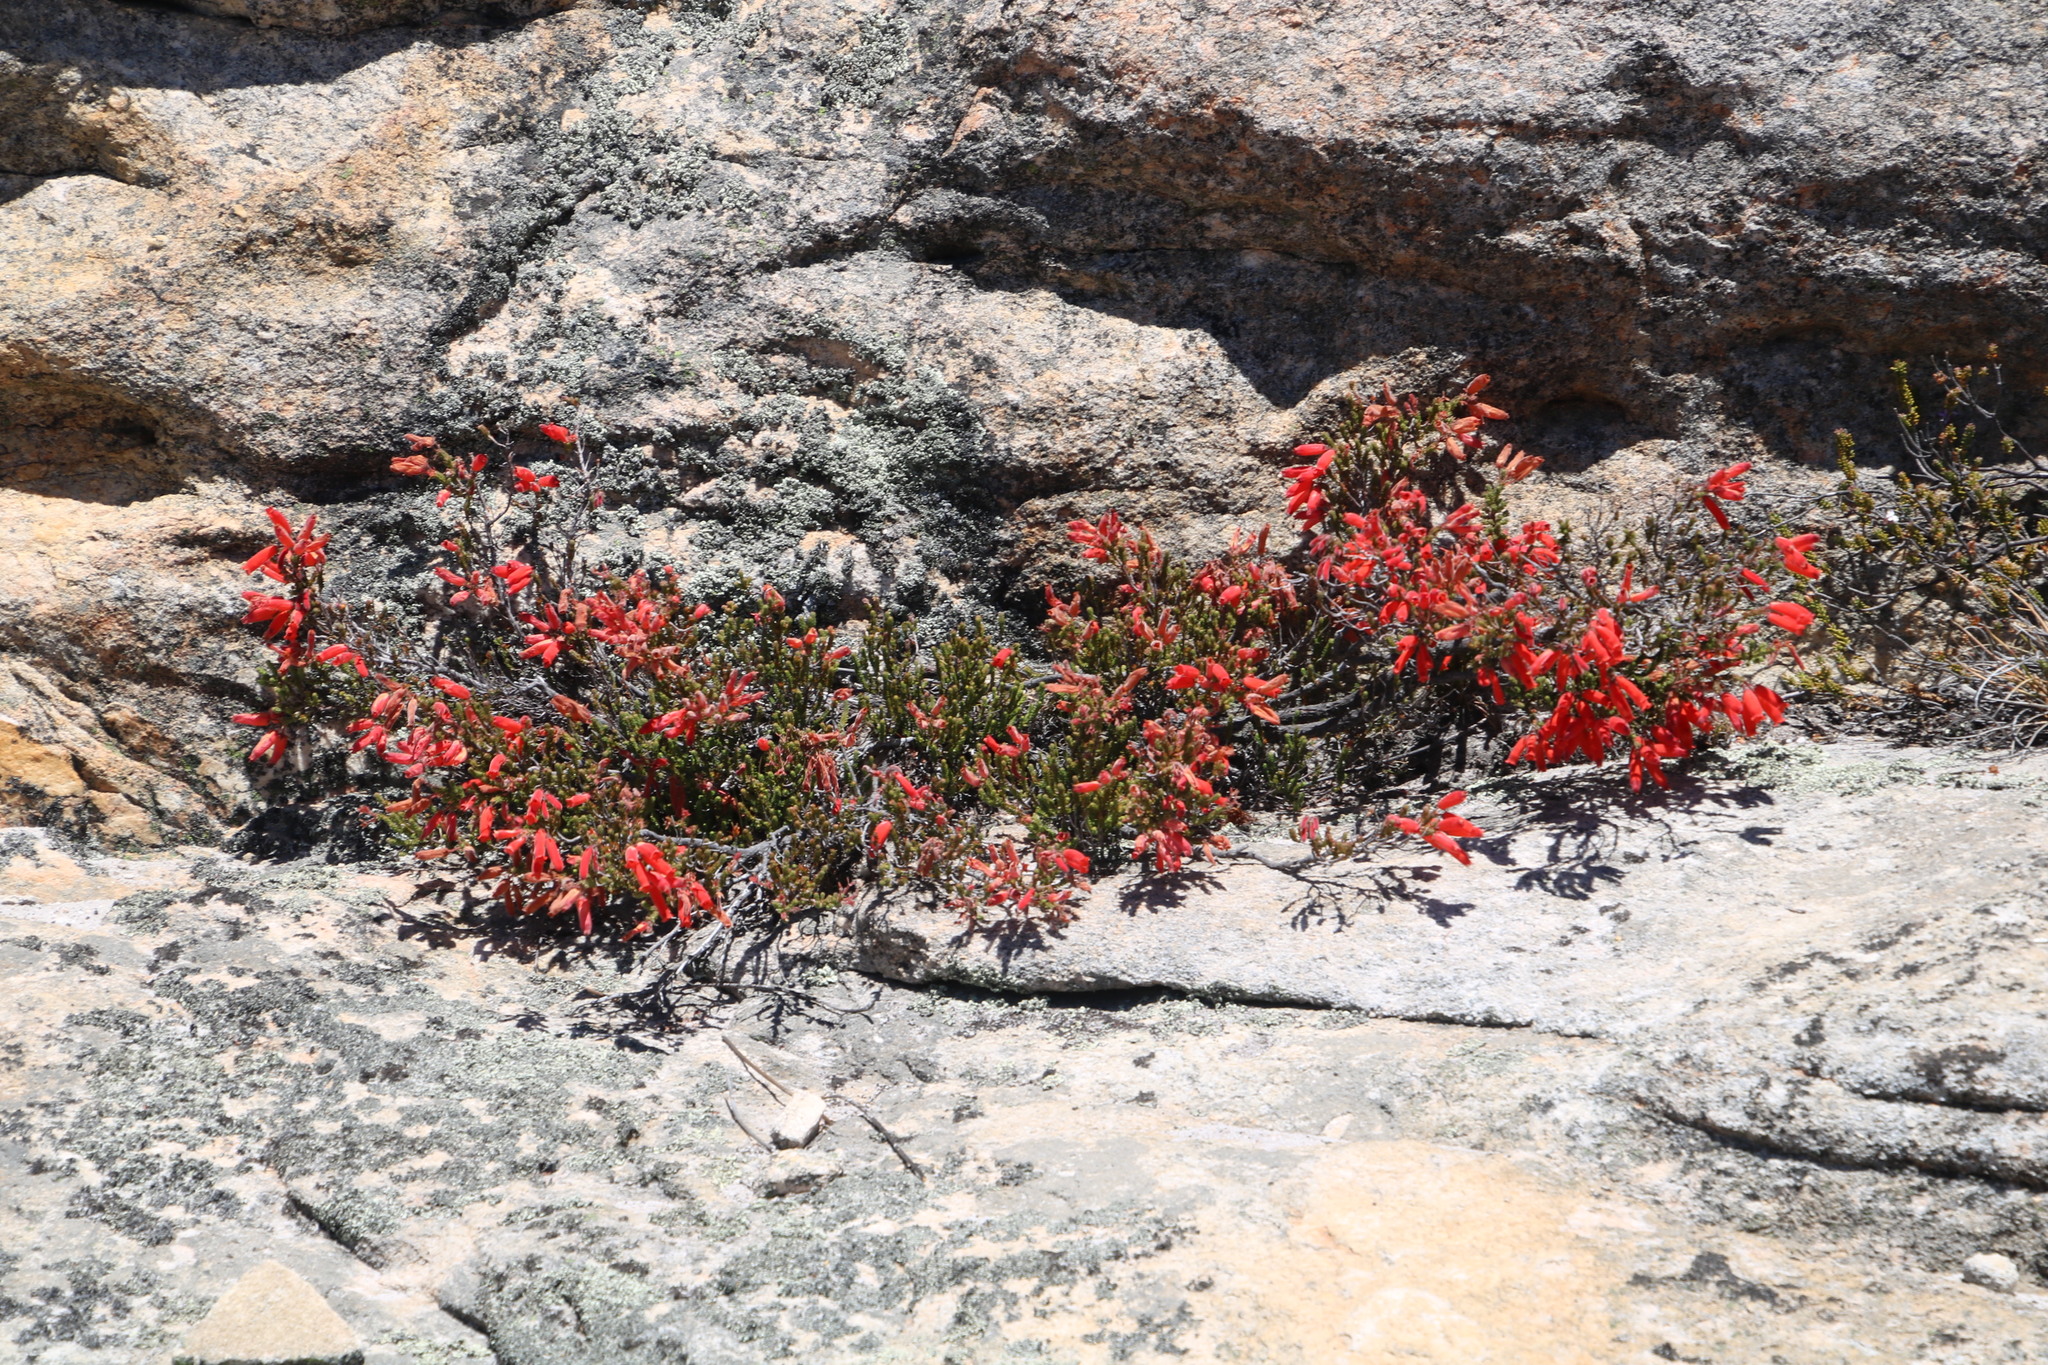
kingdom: Plantae
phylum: Tracheophyta
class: Magnoliopsida
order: Ericales
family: Ericaceae
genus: Erica
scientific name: Erica tumida
